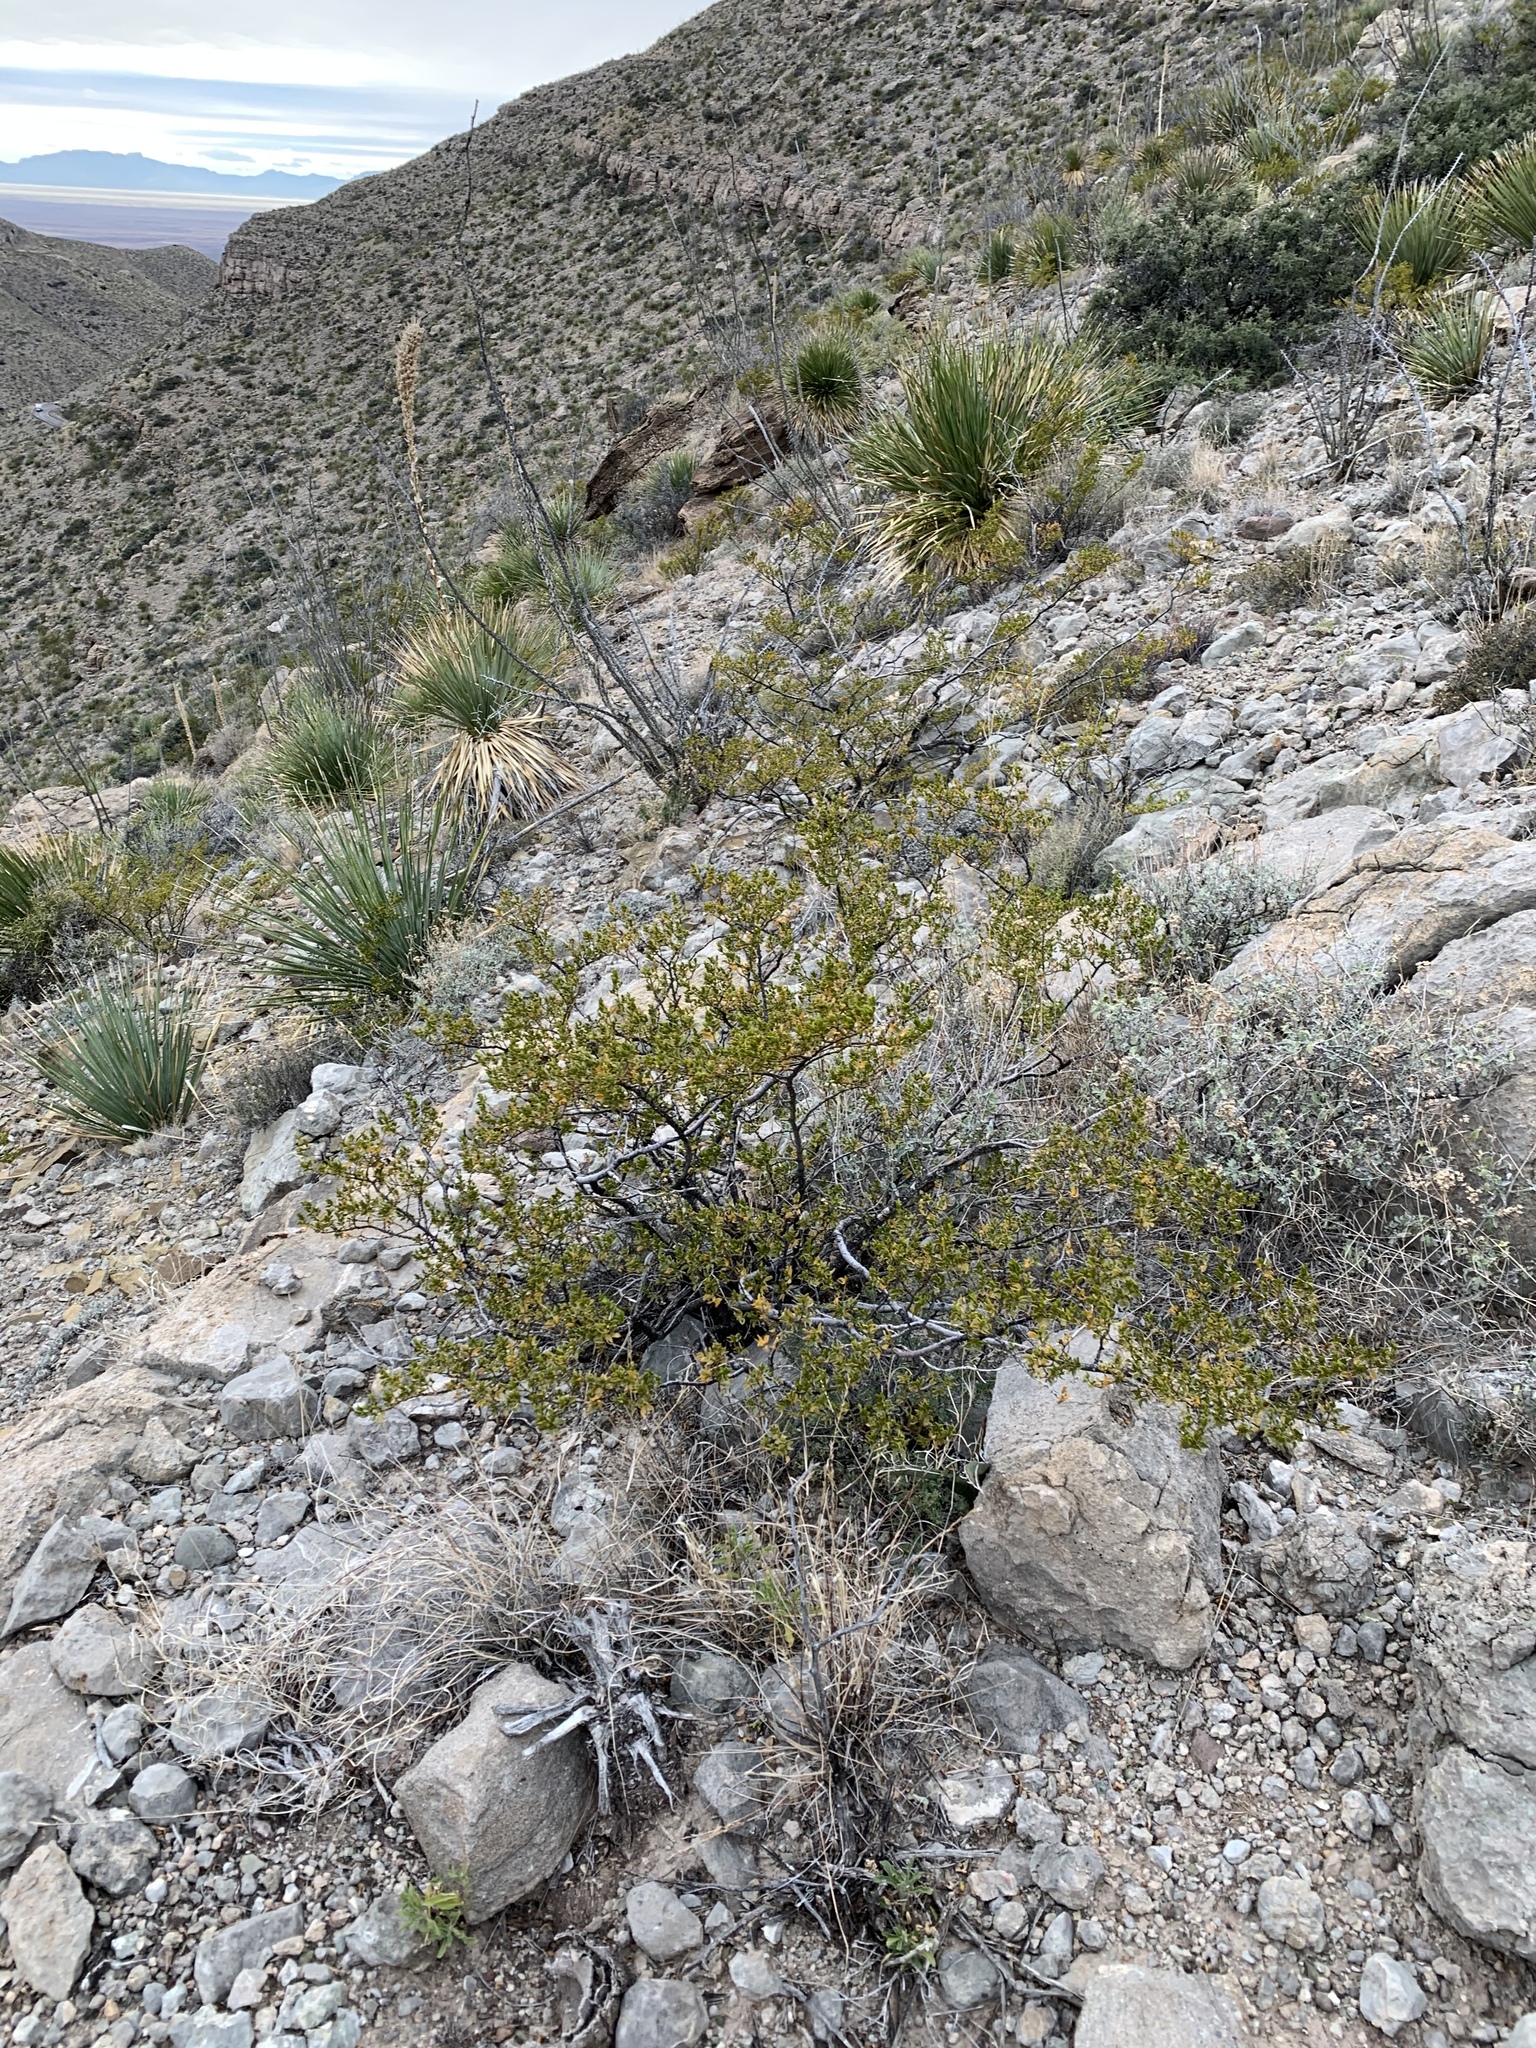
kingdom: Plantae
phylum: Tracheophyta
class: Magnoliopsida
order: Zygophyllales
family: Zygophyllaceae
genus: Larrea
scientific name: Larrea tridentata
